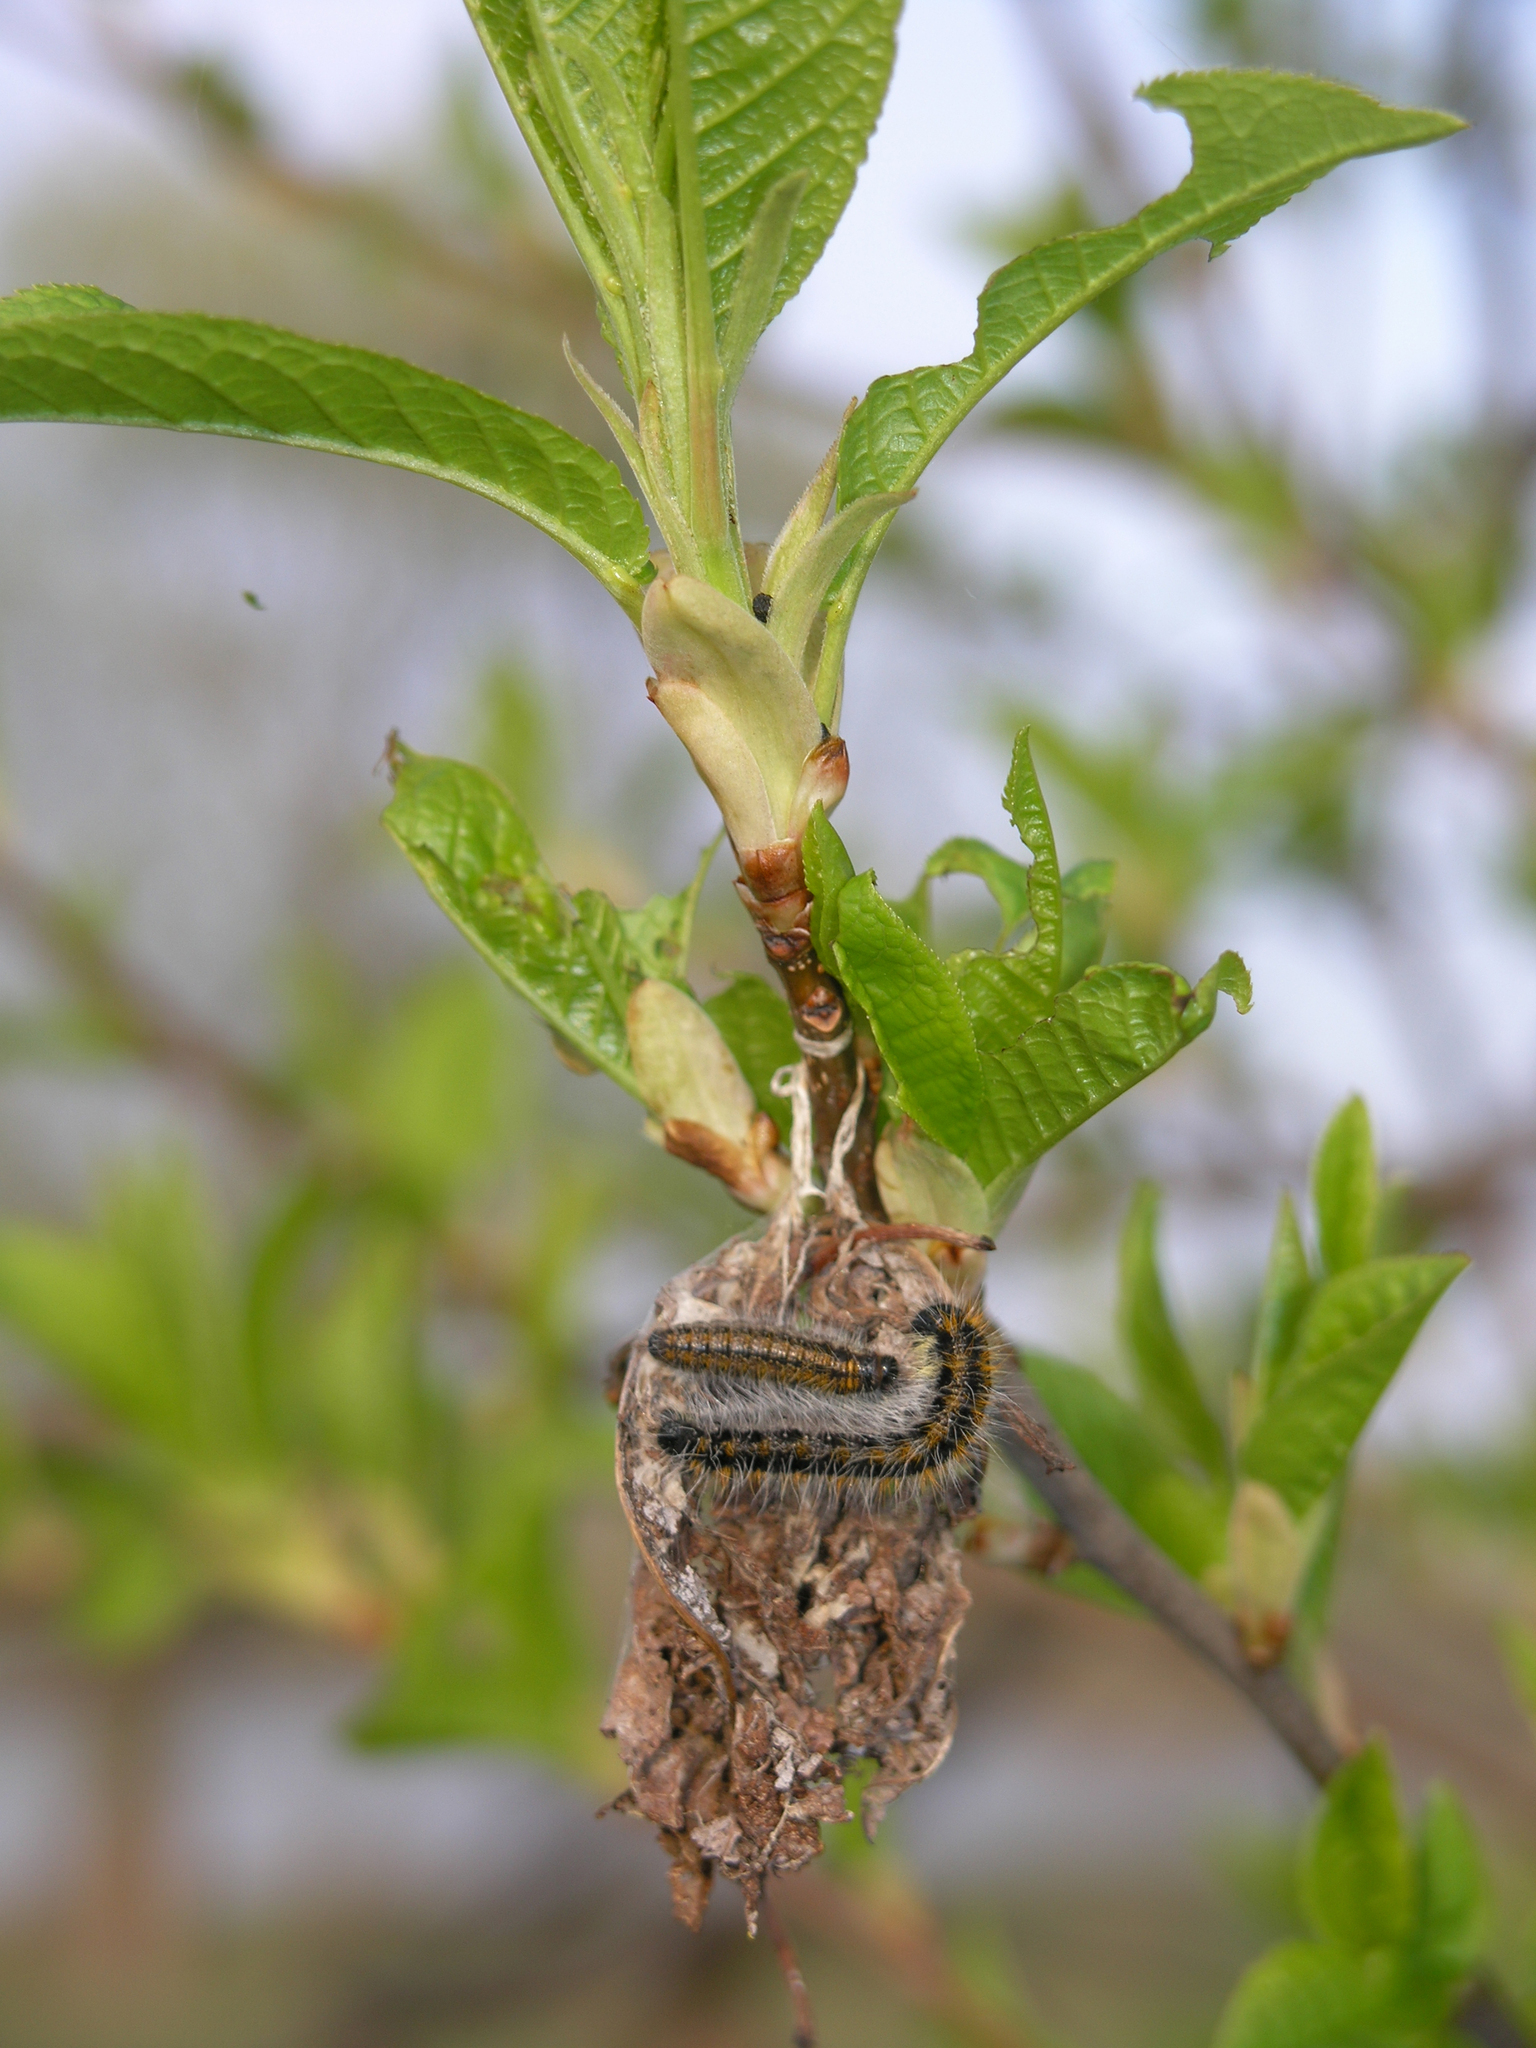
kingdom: Animalia
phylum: Arthropoda
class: Insecta
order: Lepidoptera
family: Pieridae
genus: Aporia
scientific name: Aporia crataegi
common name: Black-veined white
